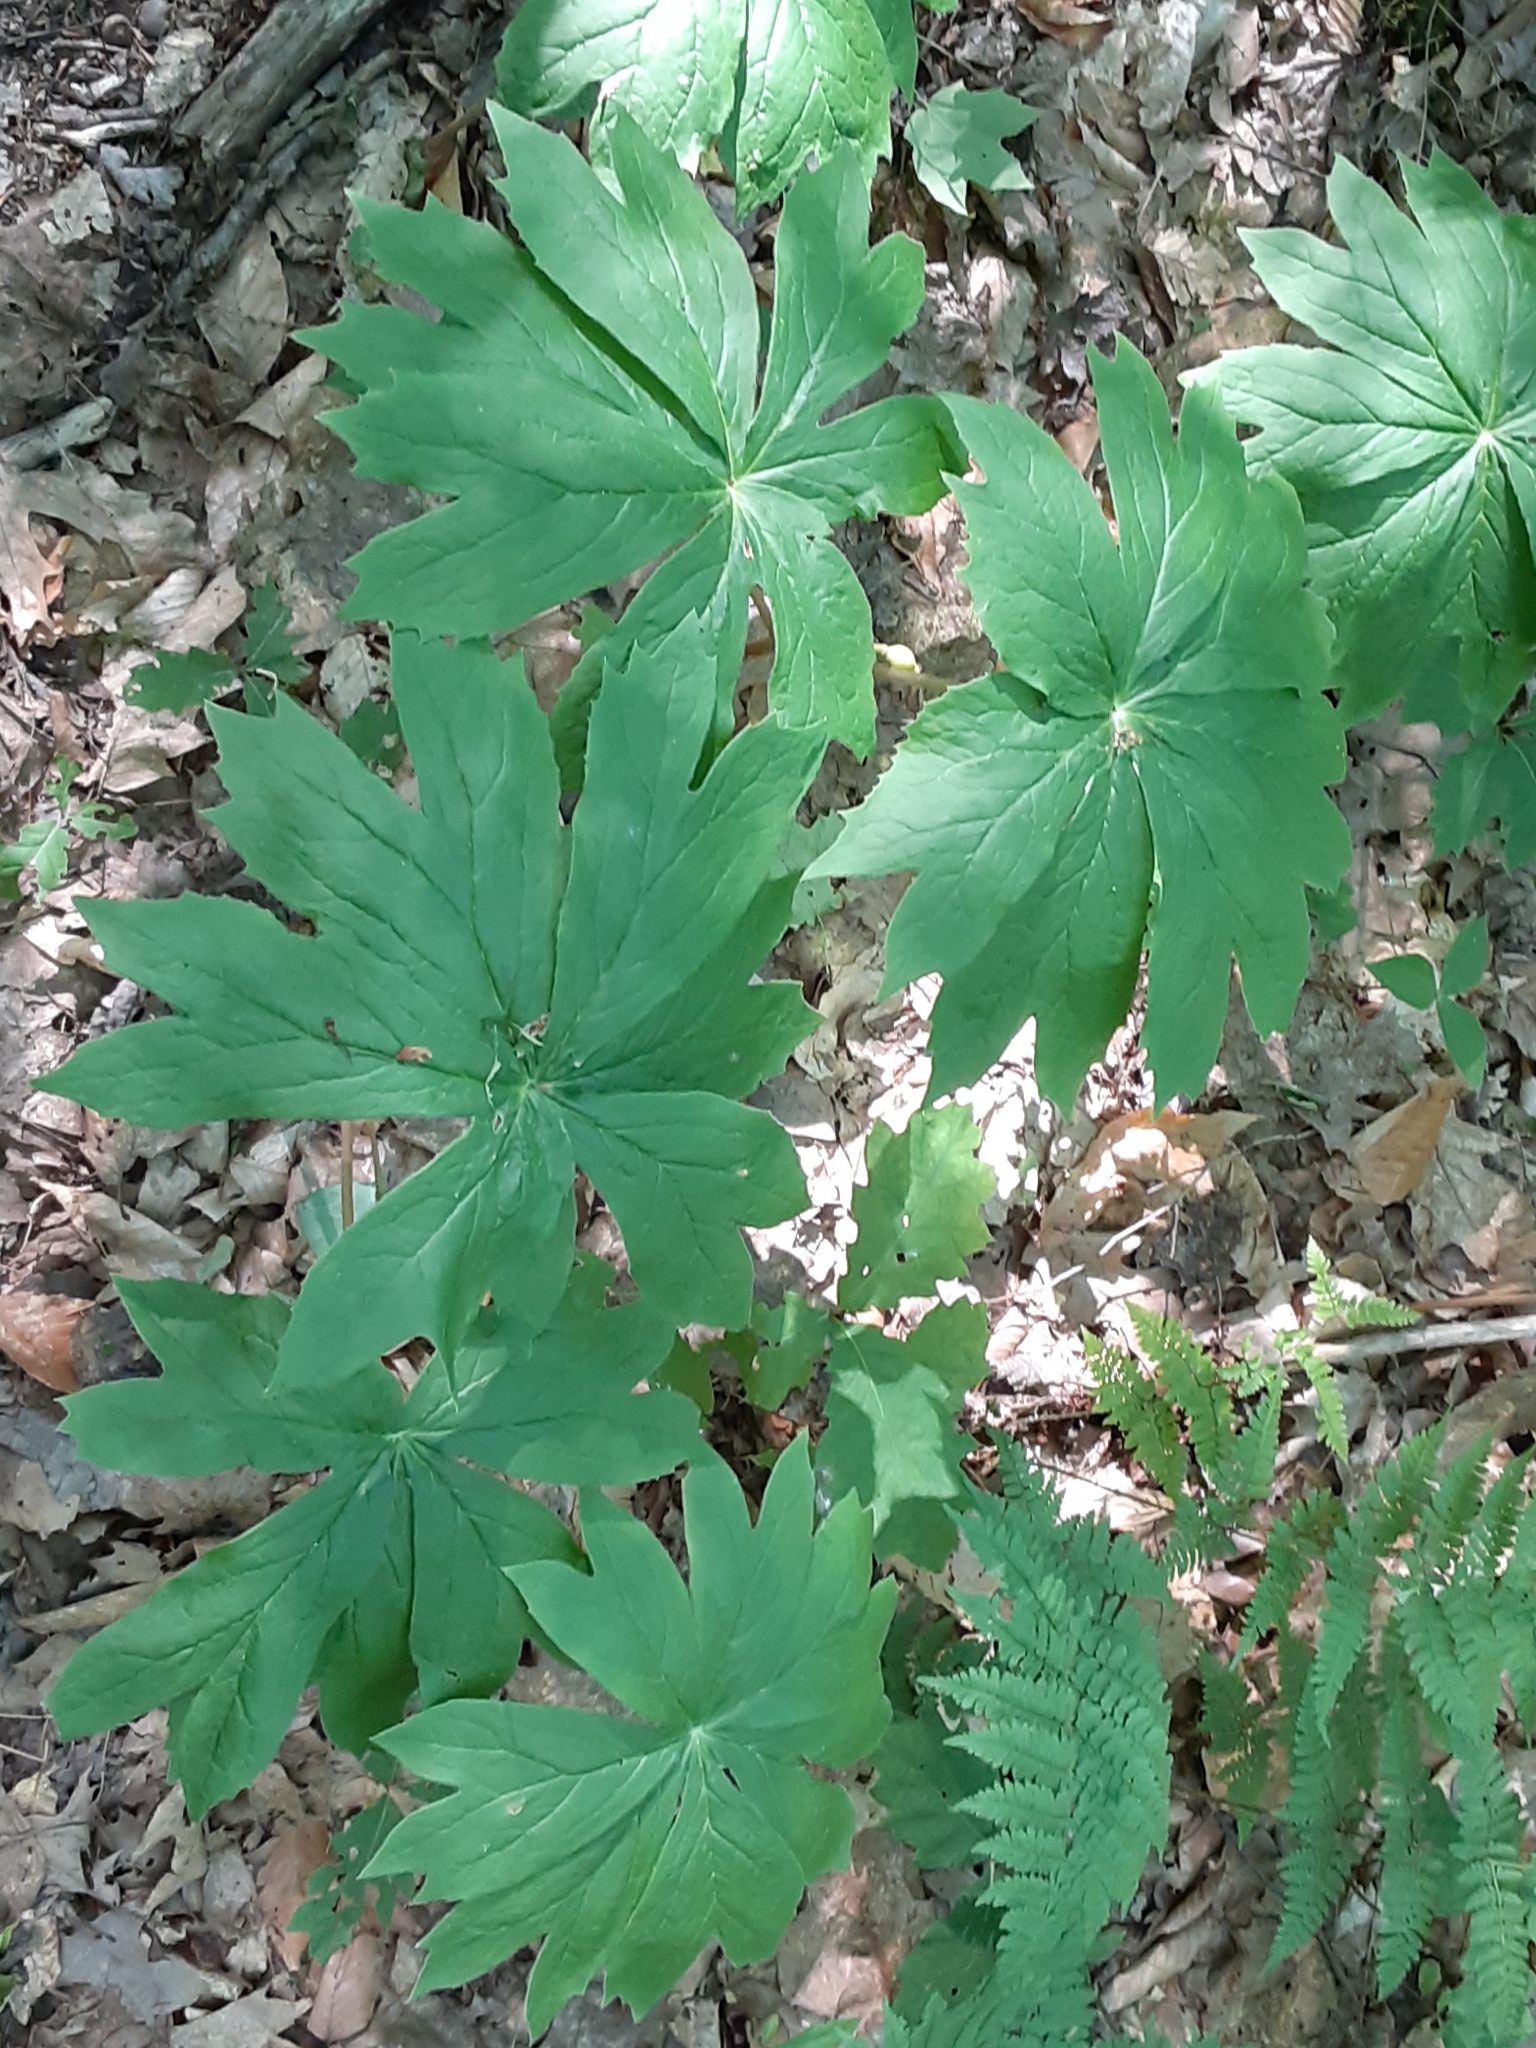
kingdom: Plantae
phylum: Tracheophyta
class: Magnoliopsida
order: Ranunculales
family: Berberidaceae
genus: Podophyllum
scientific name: Podophyllum peltatum
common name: Wild mandrake
